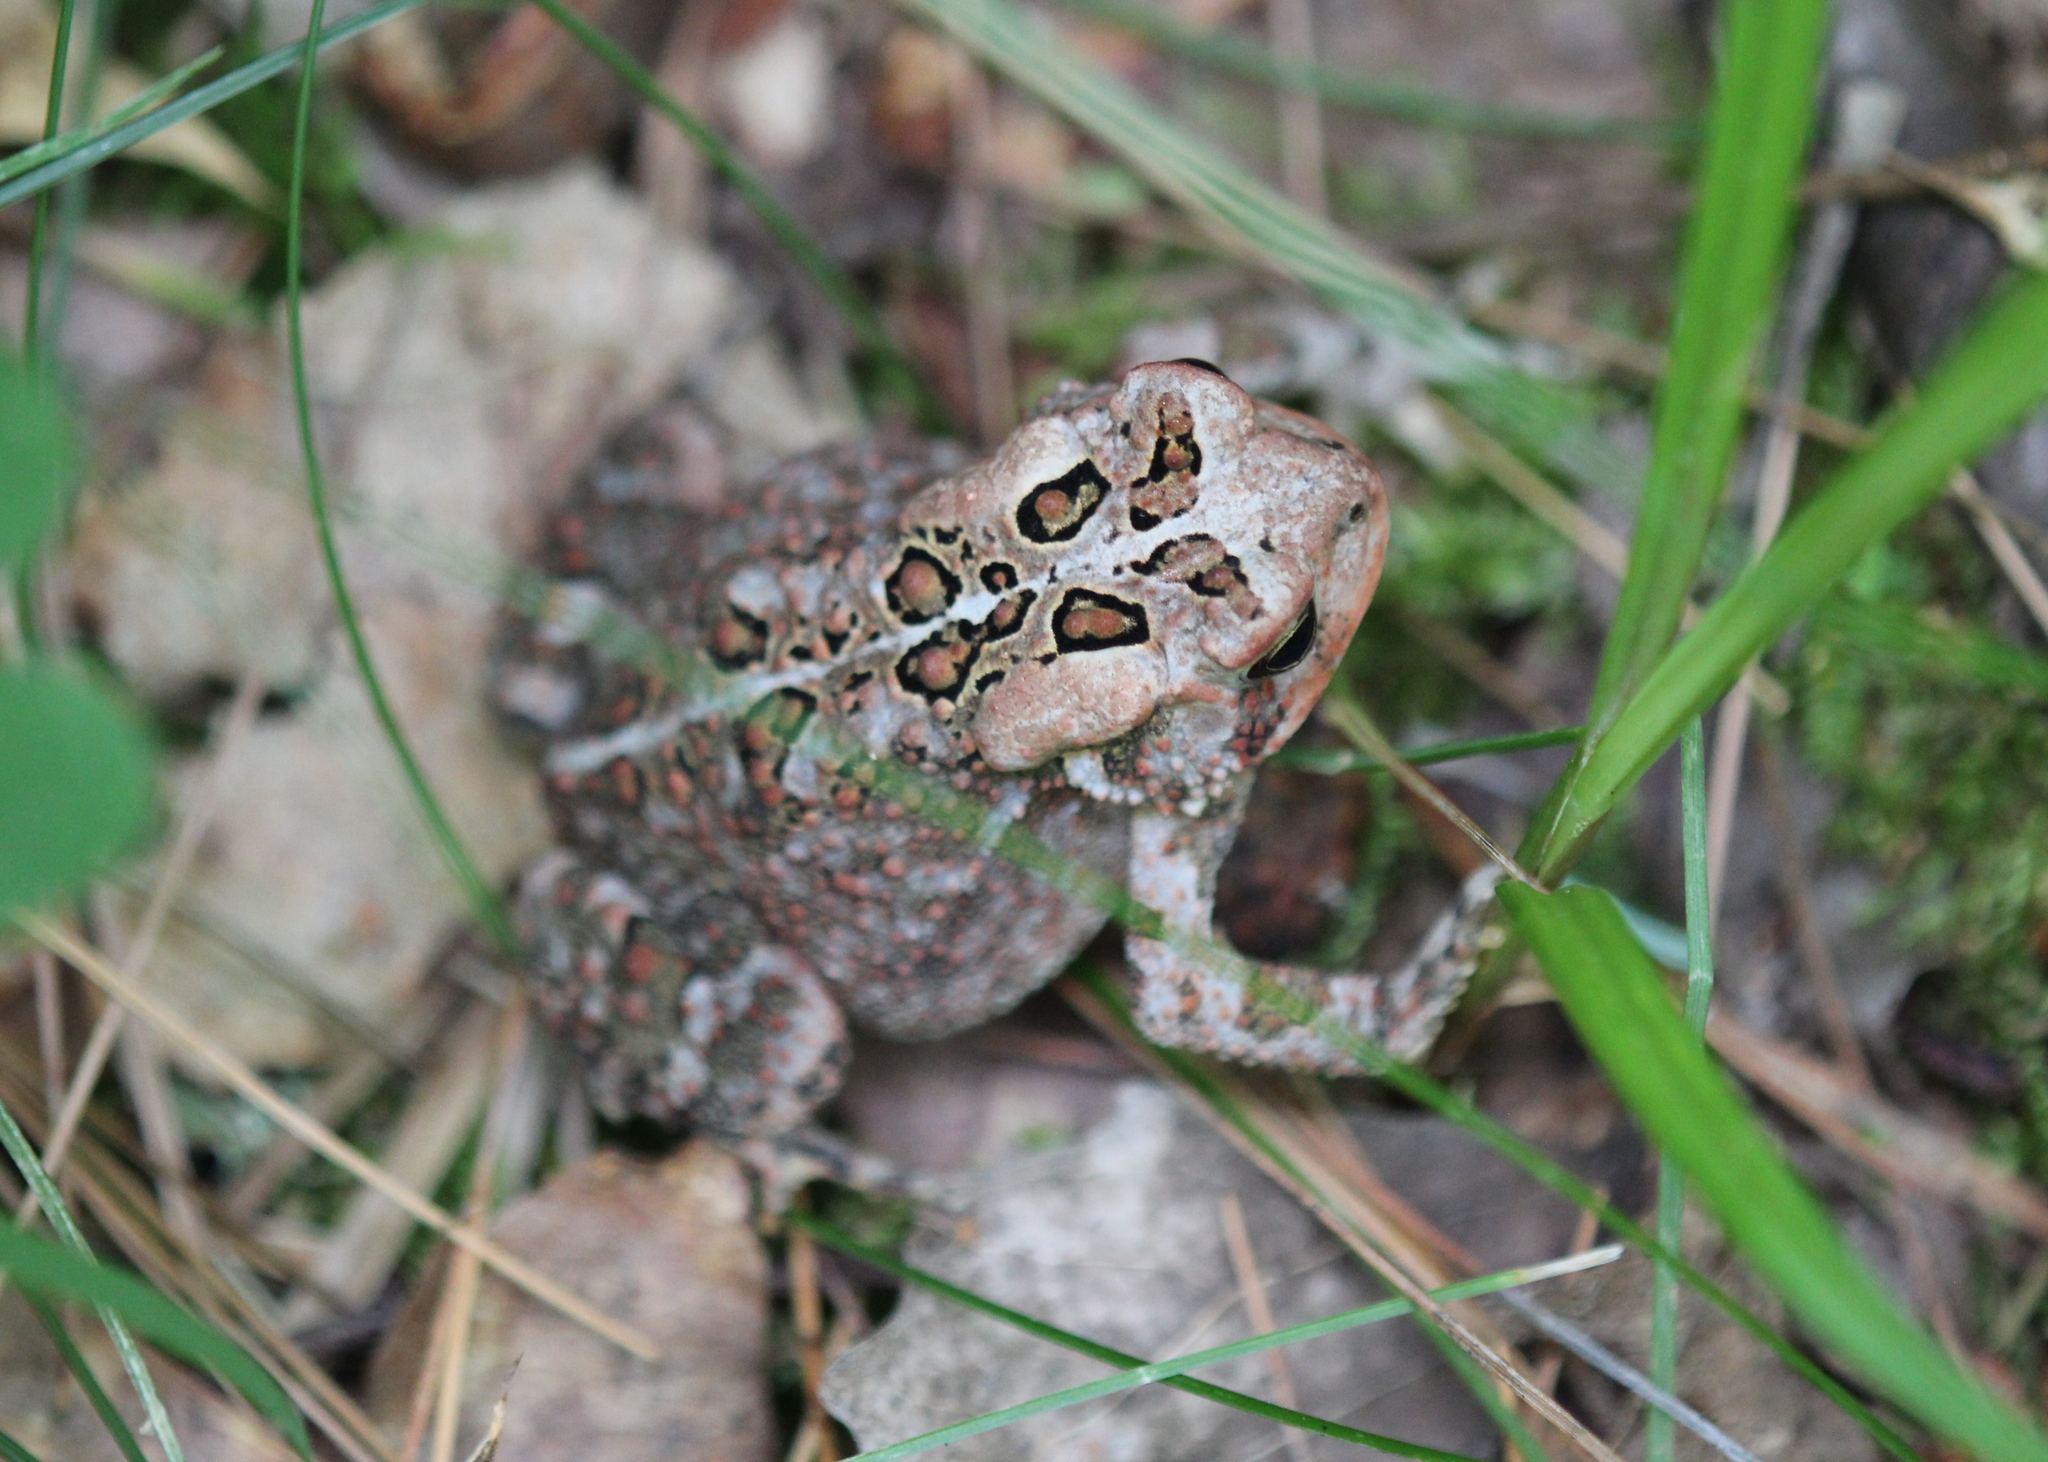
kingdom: Animalia
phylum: Chordata
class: Amphibia
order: Anura
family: Bufonidae
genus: Anaxyrus
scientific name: Anaxyrus americanus
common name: American toad
